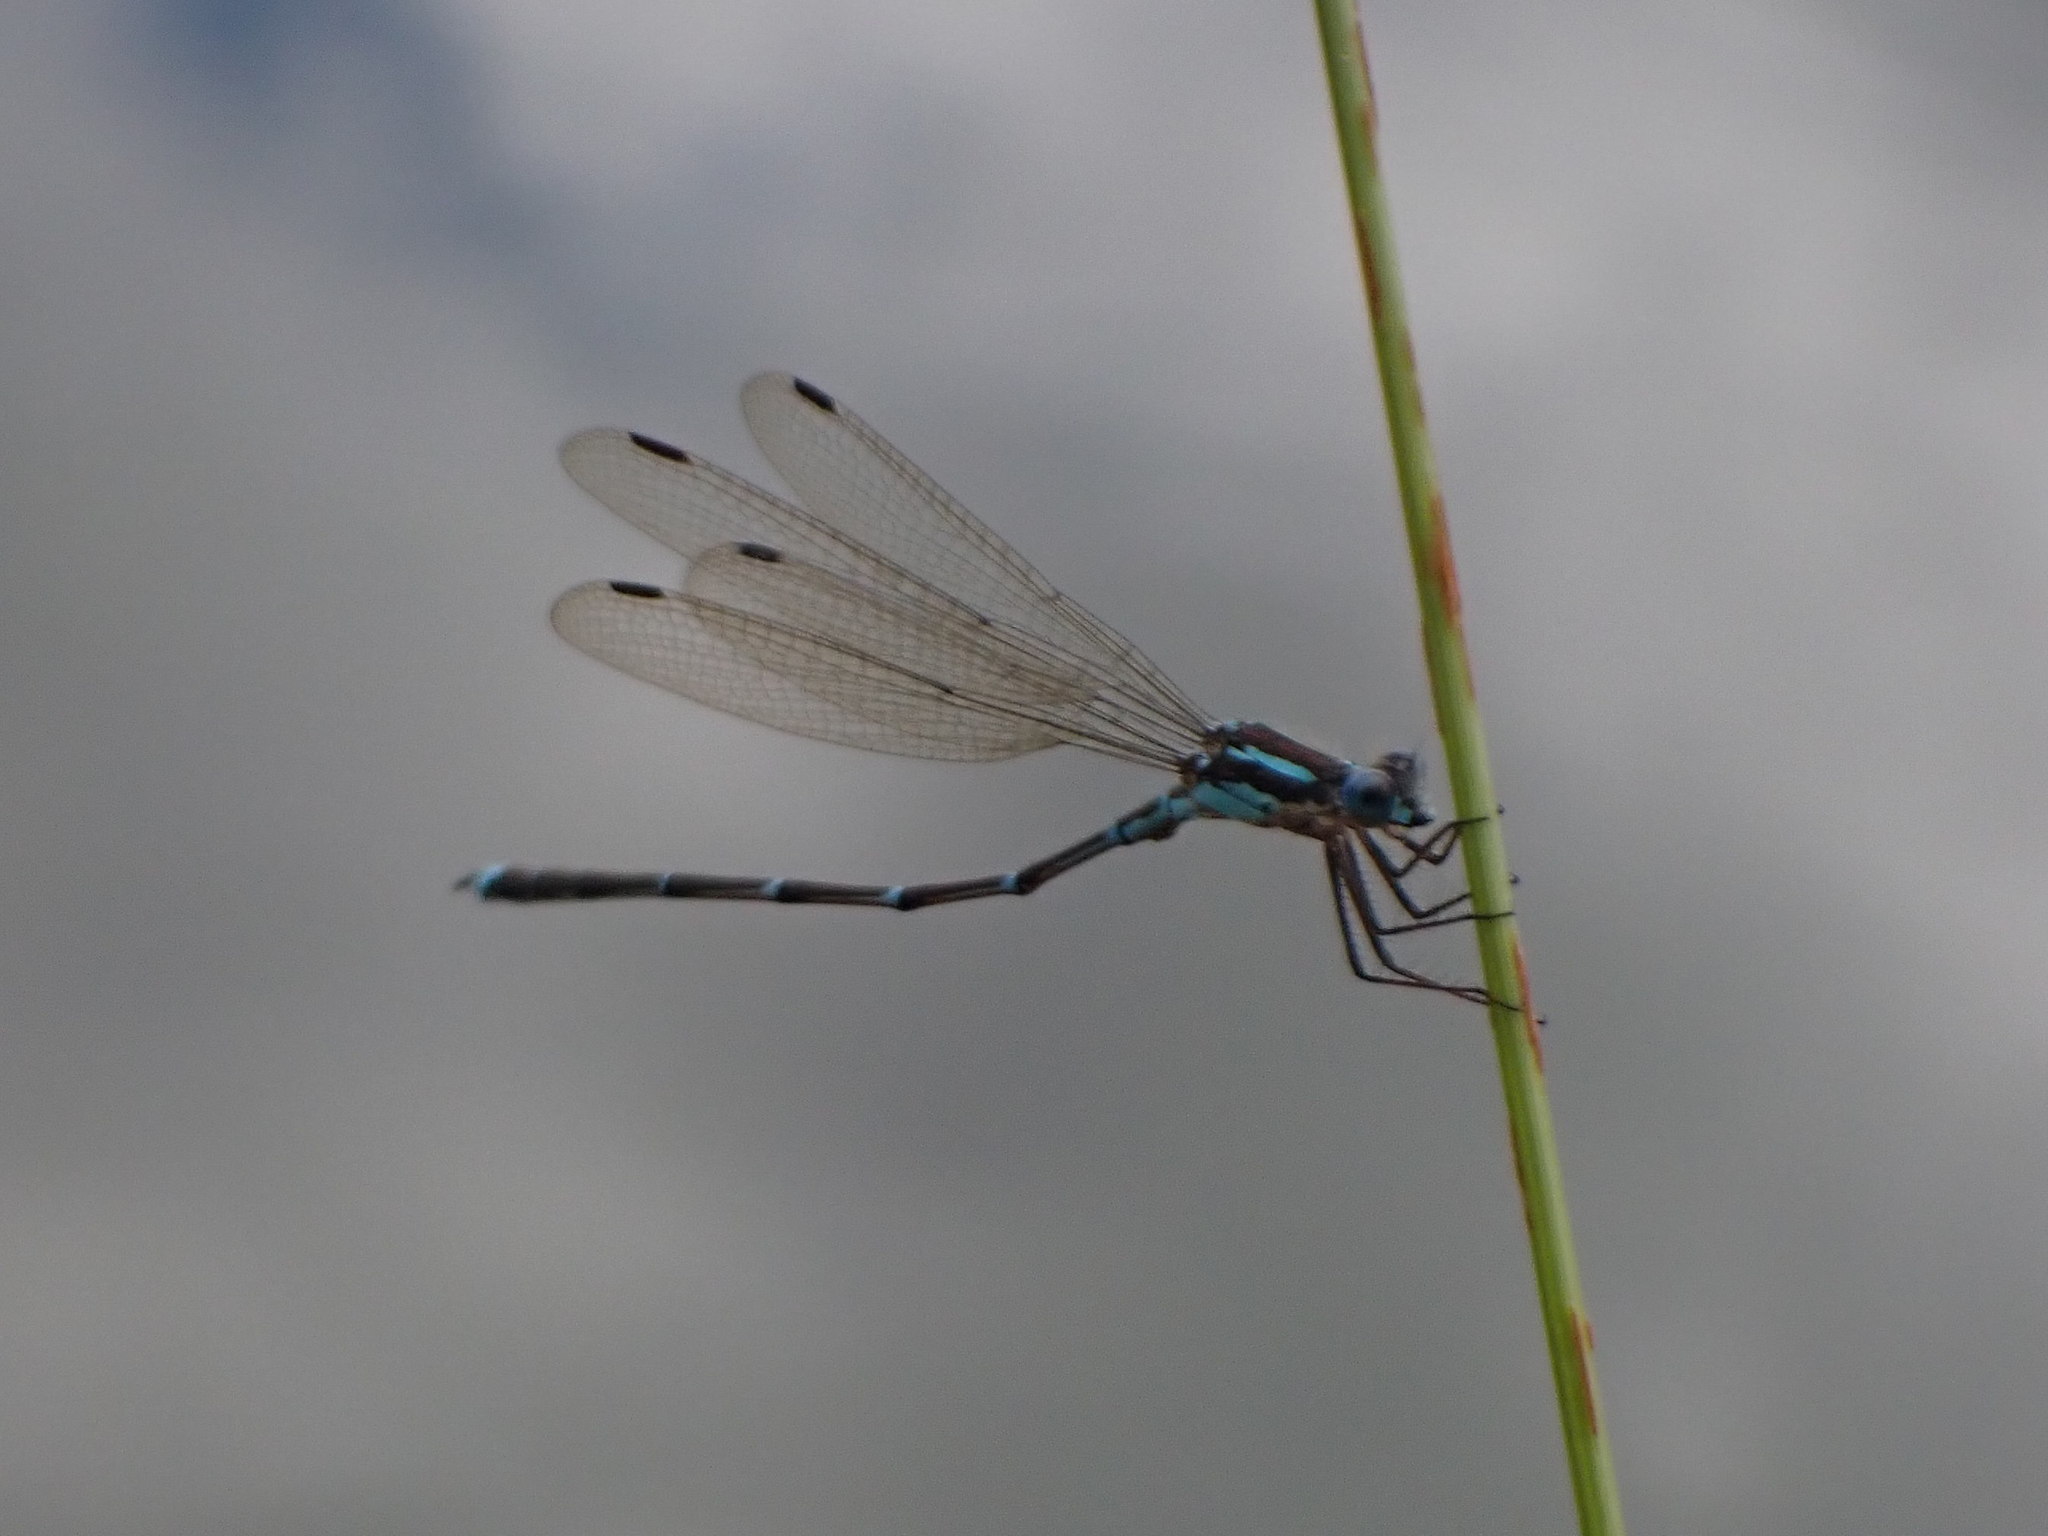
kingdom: Animalia
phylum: Arthropoda
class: Insecta
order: Odonata
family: Lestidae
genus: Austrolestes
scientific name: Austrolestes colensonis
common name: Blue damselfly
